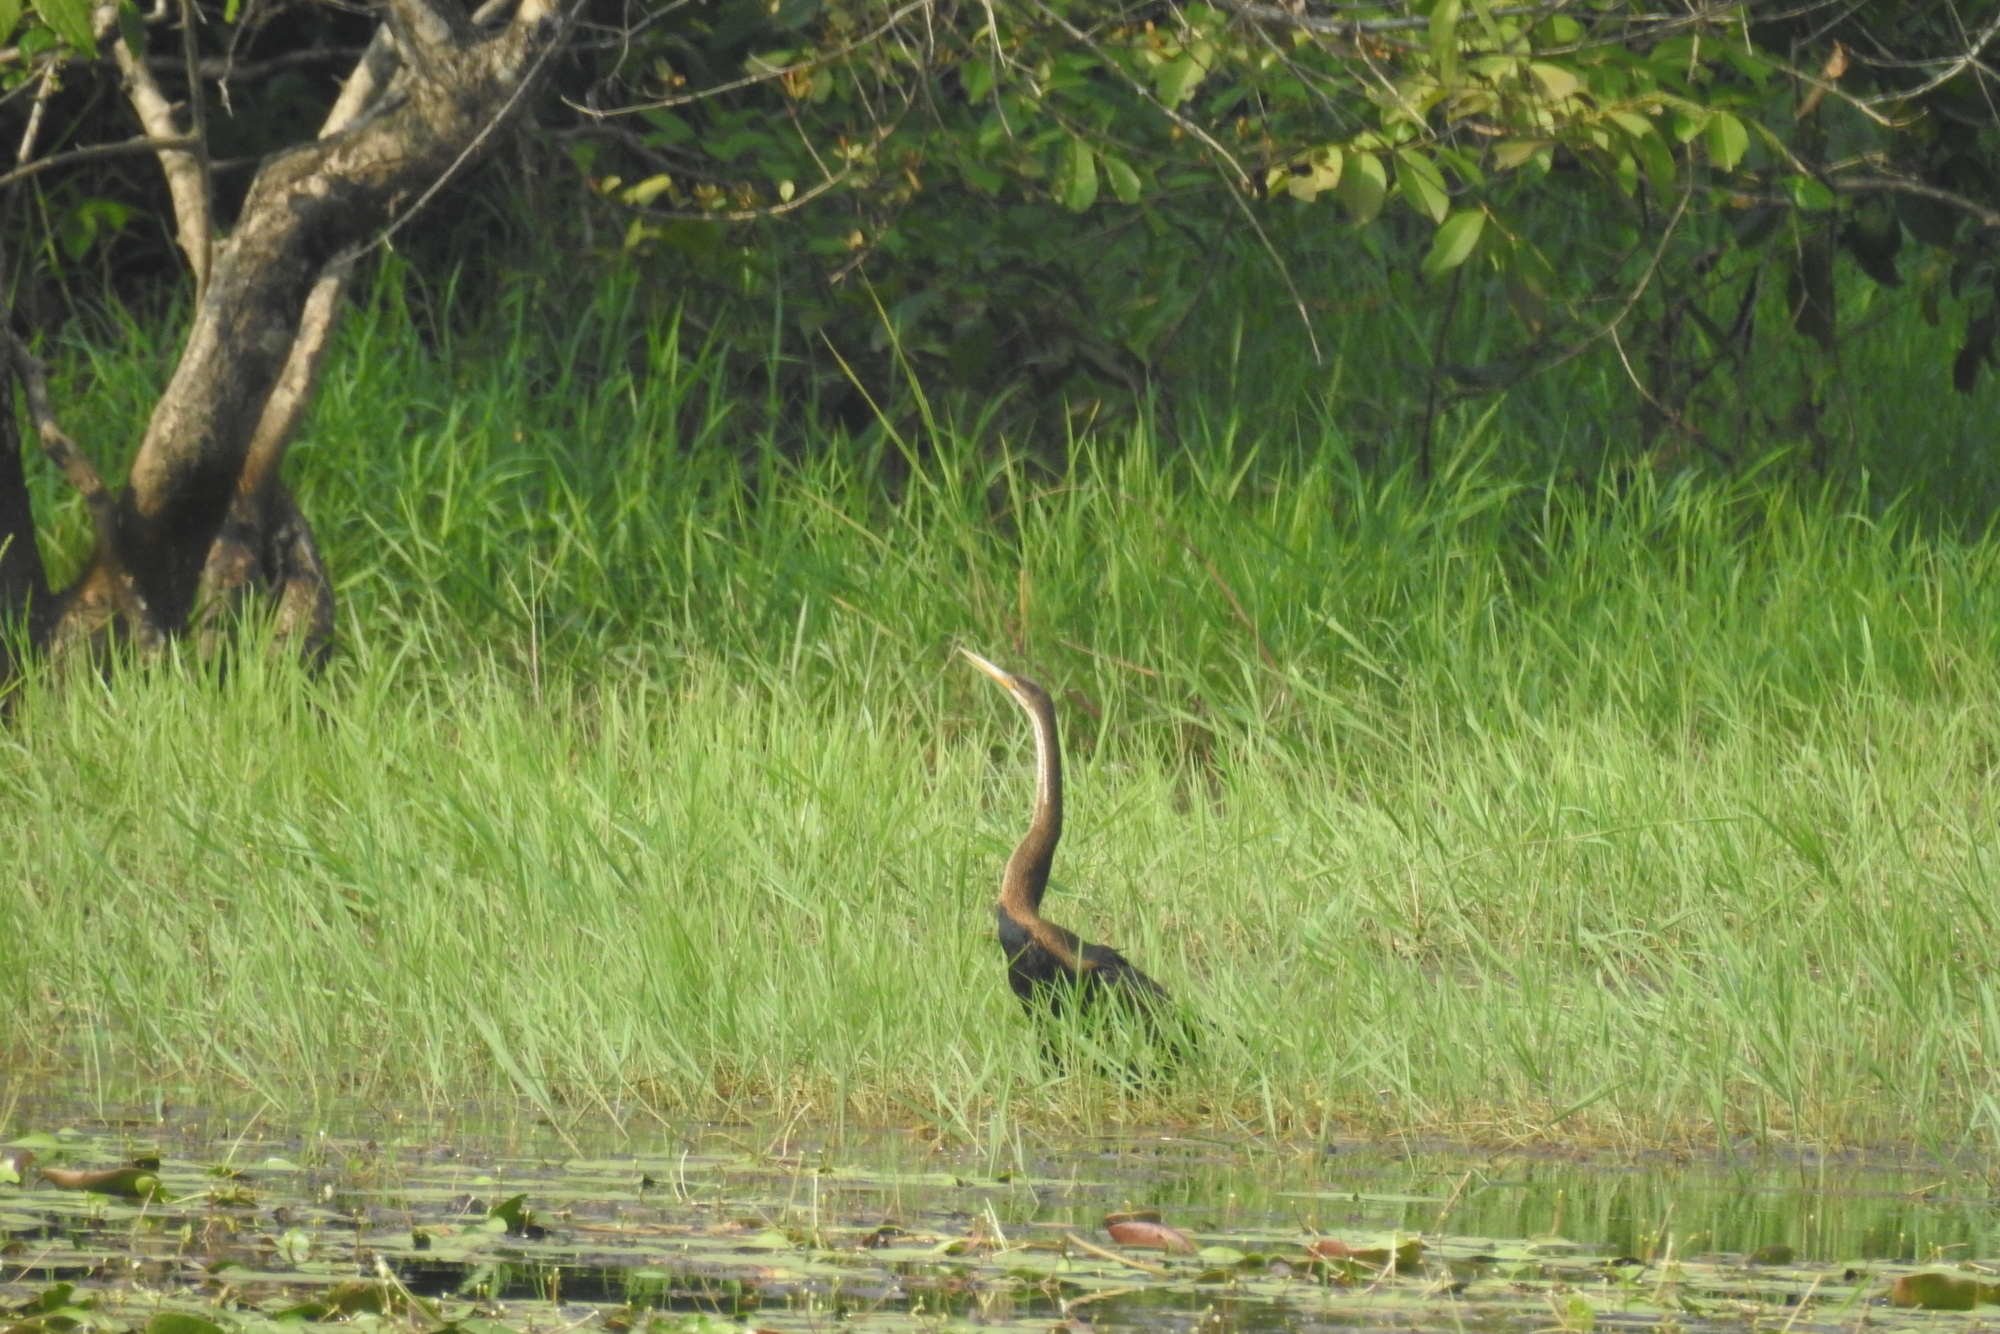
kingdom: Animalia
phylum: Chordata
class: Aves
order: Suliformes
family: Anhingidae
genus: Anhinga
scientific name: Anhinga melanogaster
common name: Oriental darter
